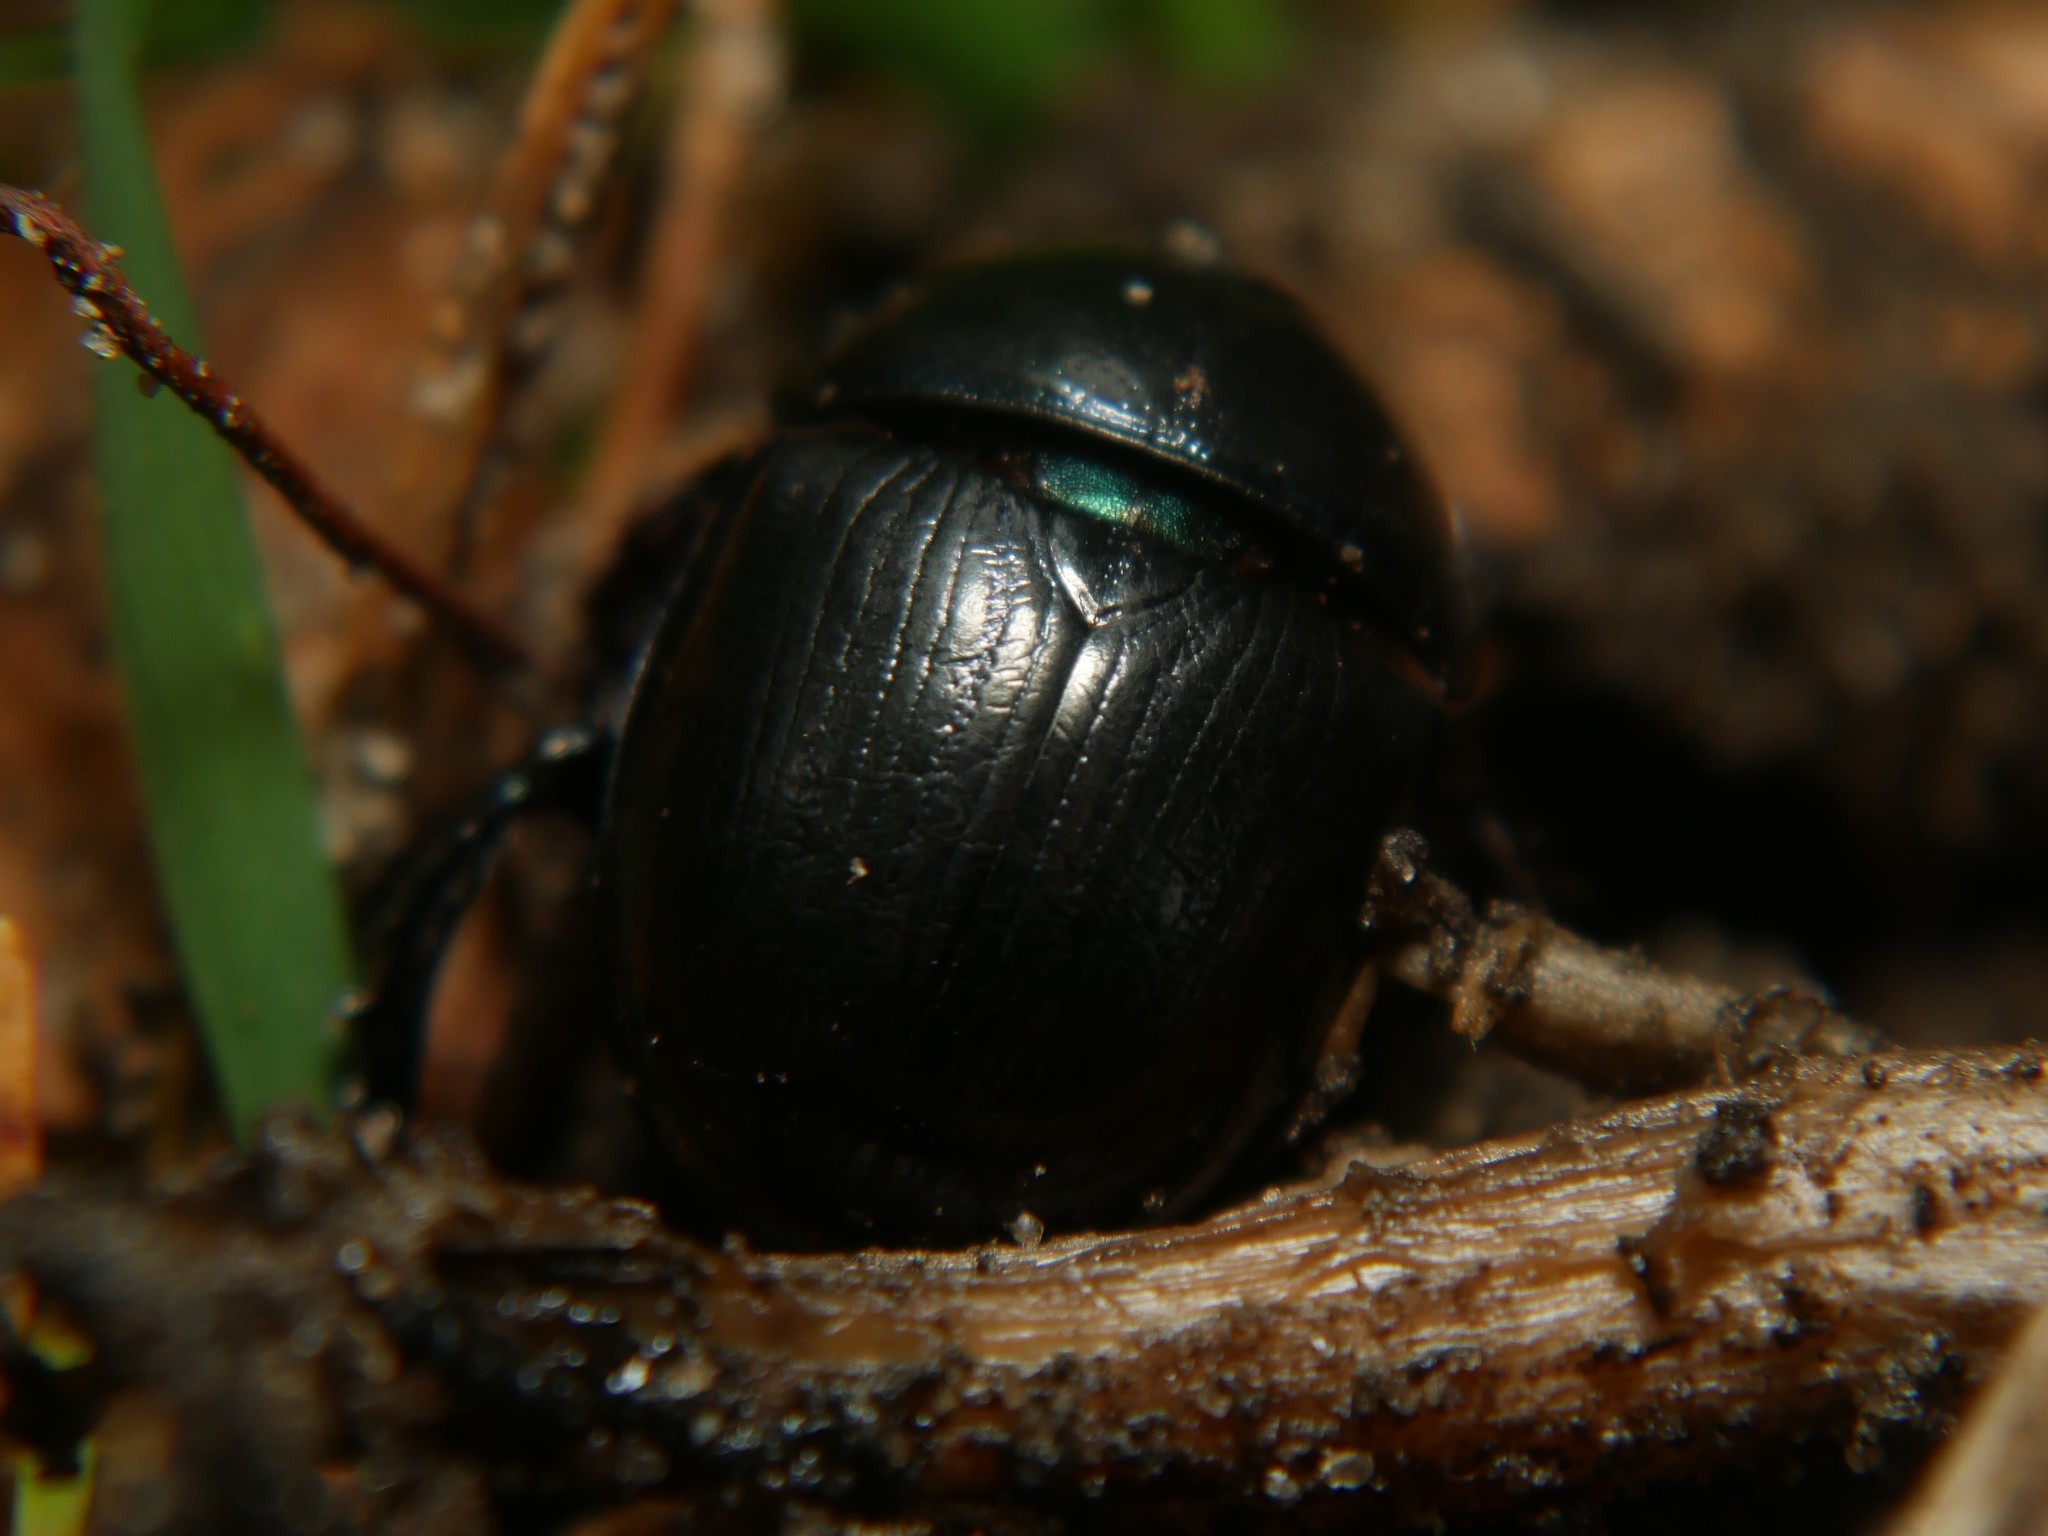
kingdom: Animalia
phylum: Arthropoda
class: Insecta
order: Coleoptera
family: Geotrupidae
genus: Anoplotrupes
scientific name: Anoplotrupes stercorosus
